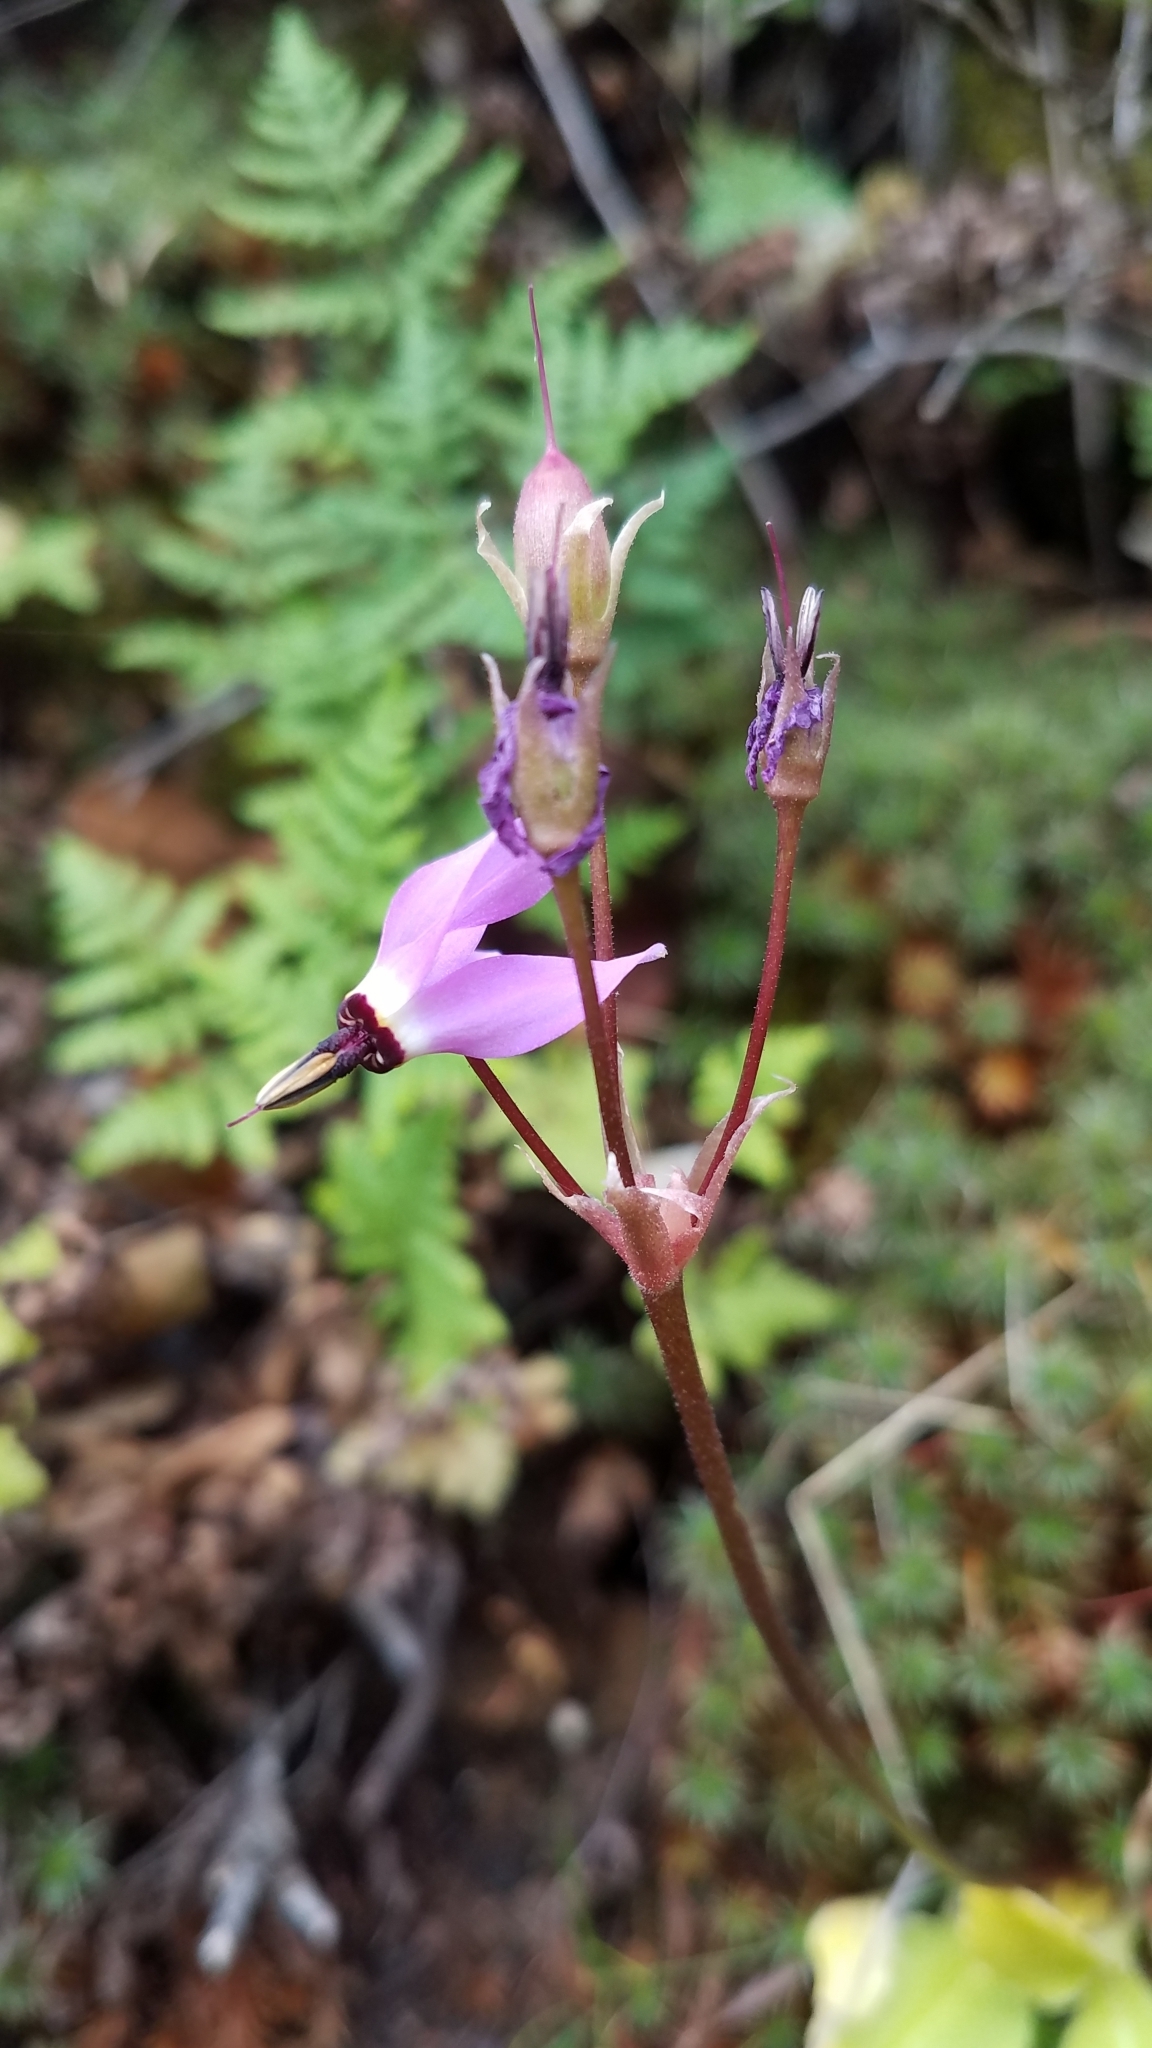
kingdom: Plantae
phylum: Tracheophyta
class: Magnoliopsida
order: Ericales
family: Primulaceae
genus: Dodecatheon
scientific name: Dodecatheon hendersonii
